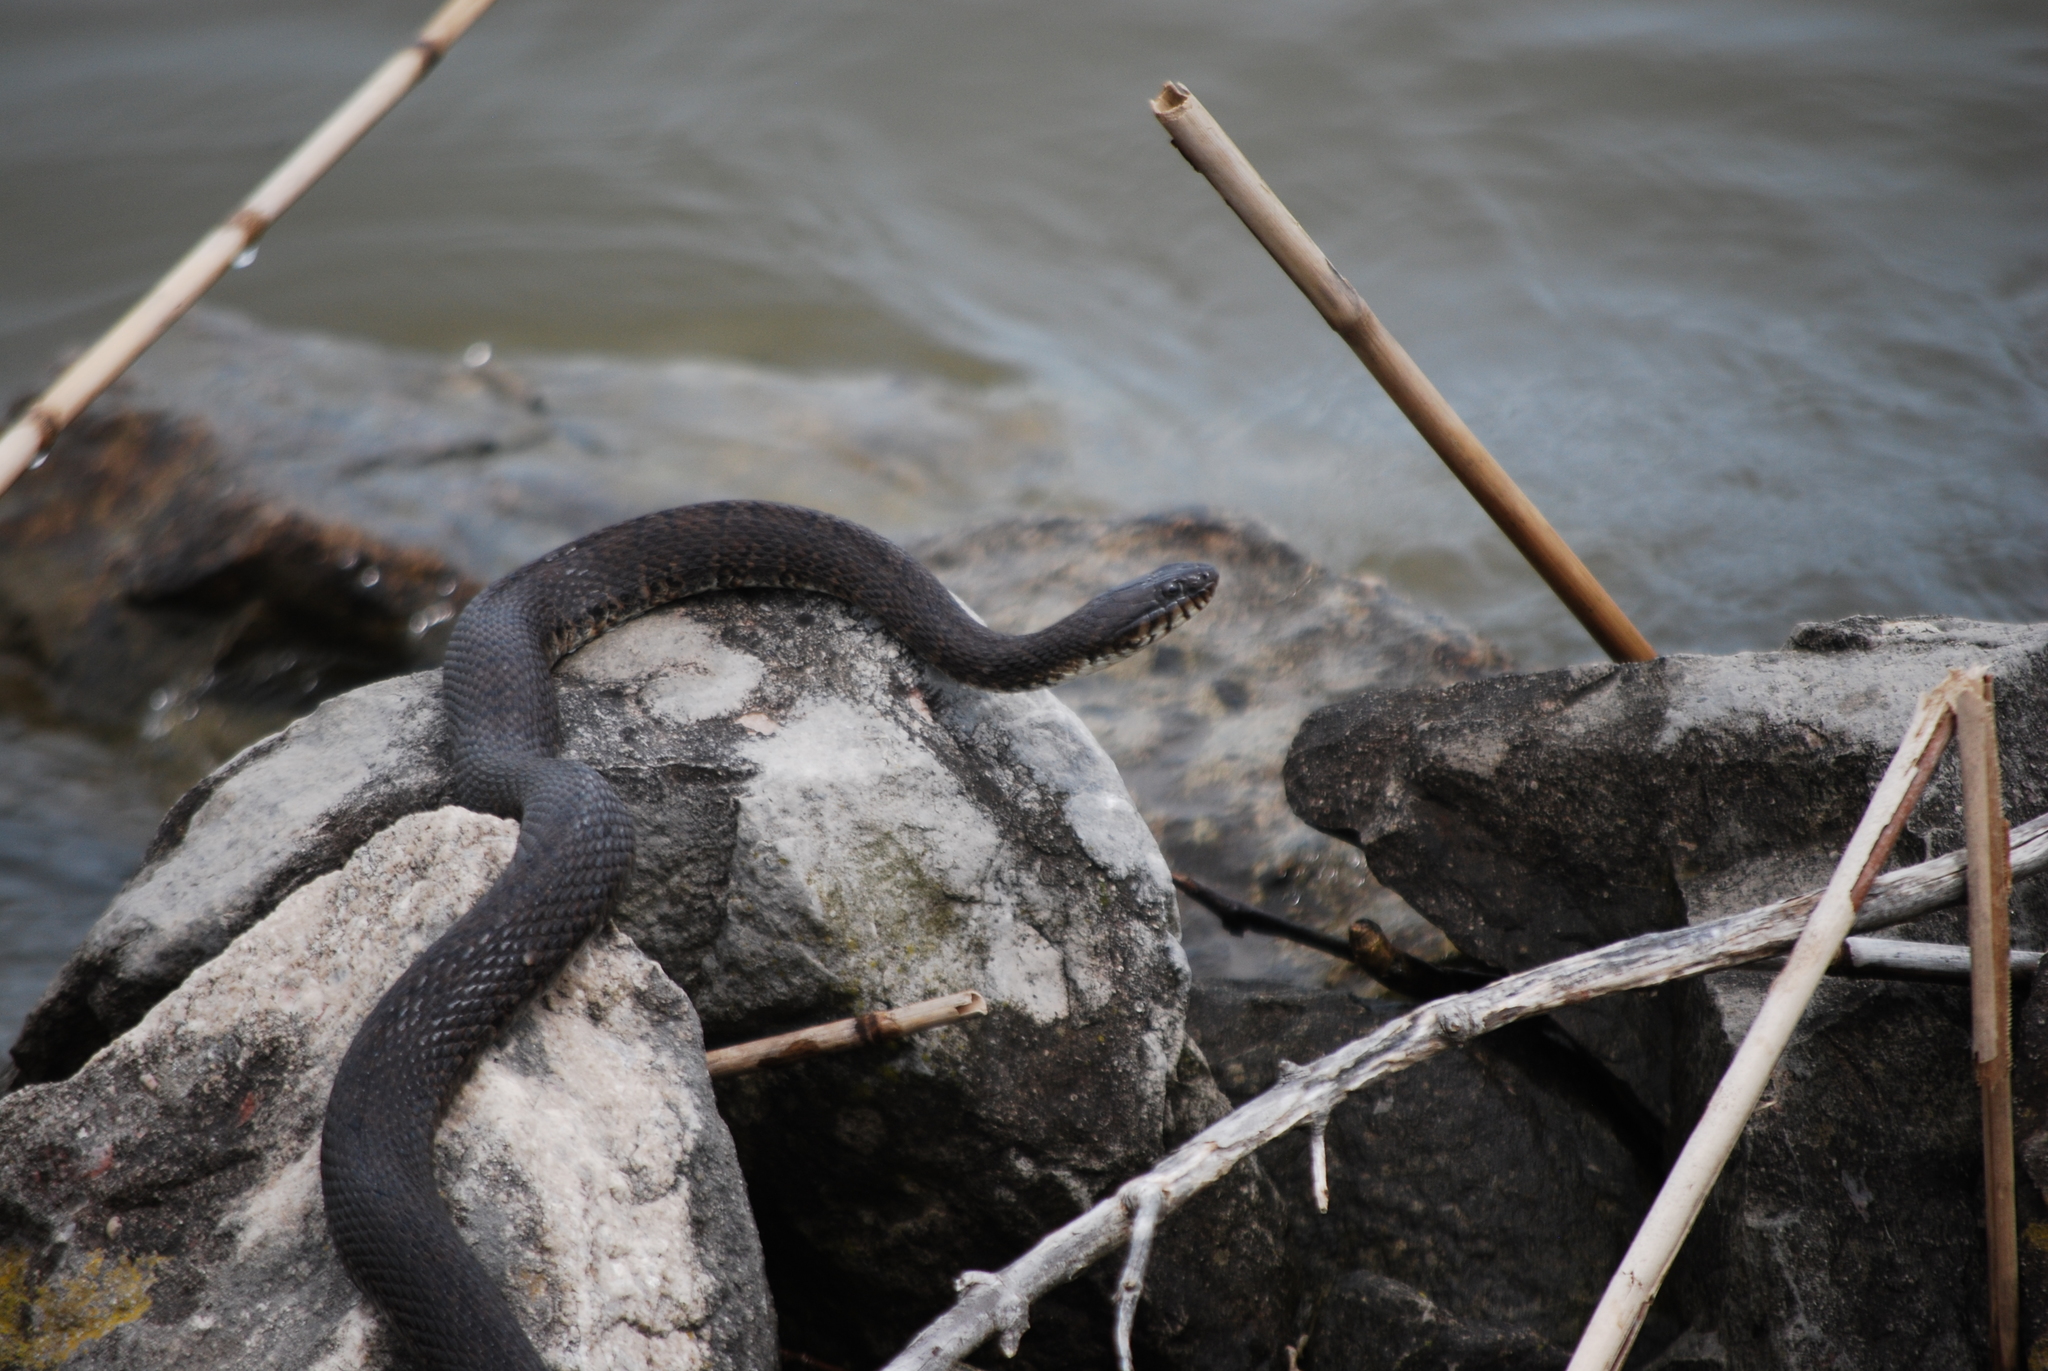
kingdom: Animalia
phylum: Chordata
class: Squamata
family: Colubridae
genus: Nerodia
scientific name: Nerodia sipedon
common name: Northern water snake
